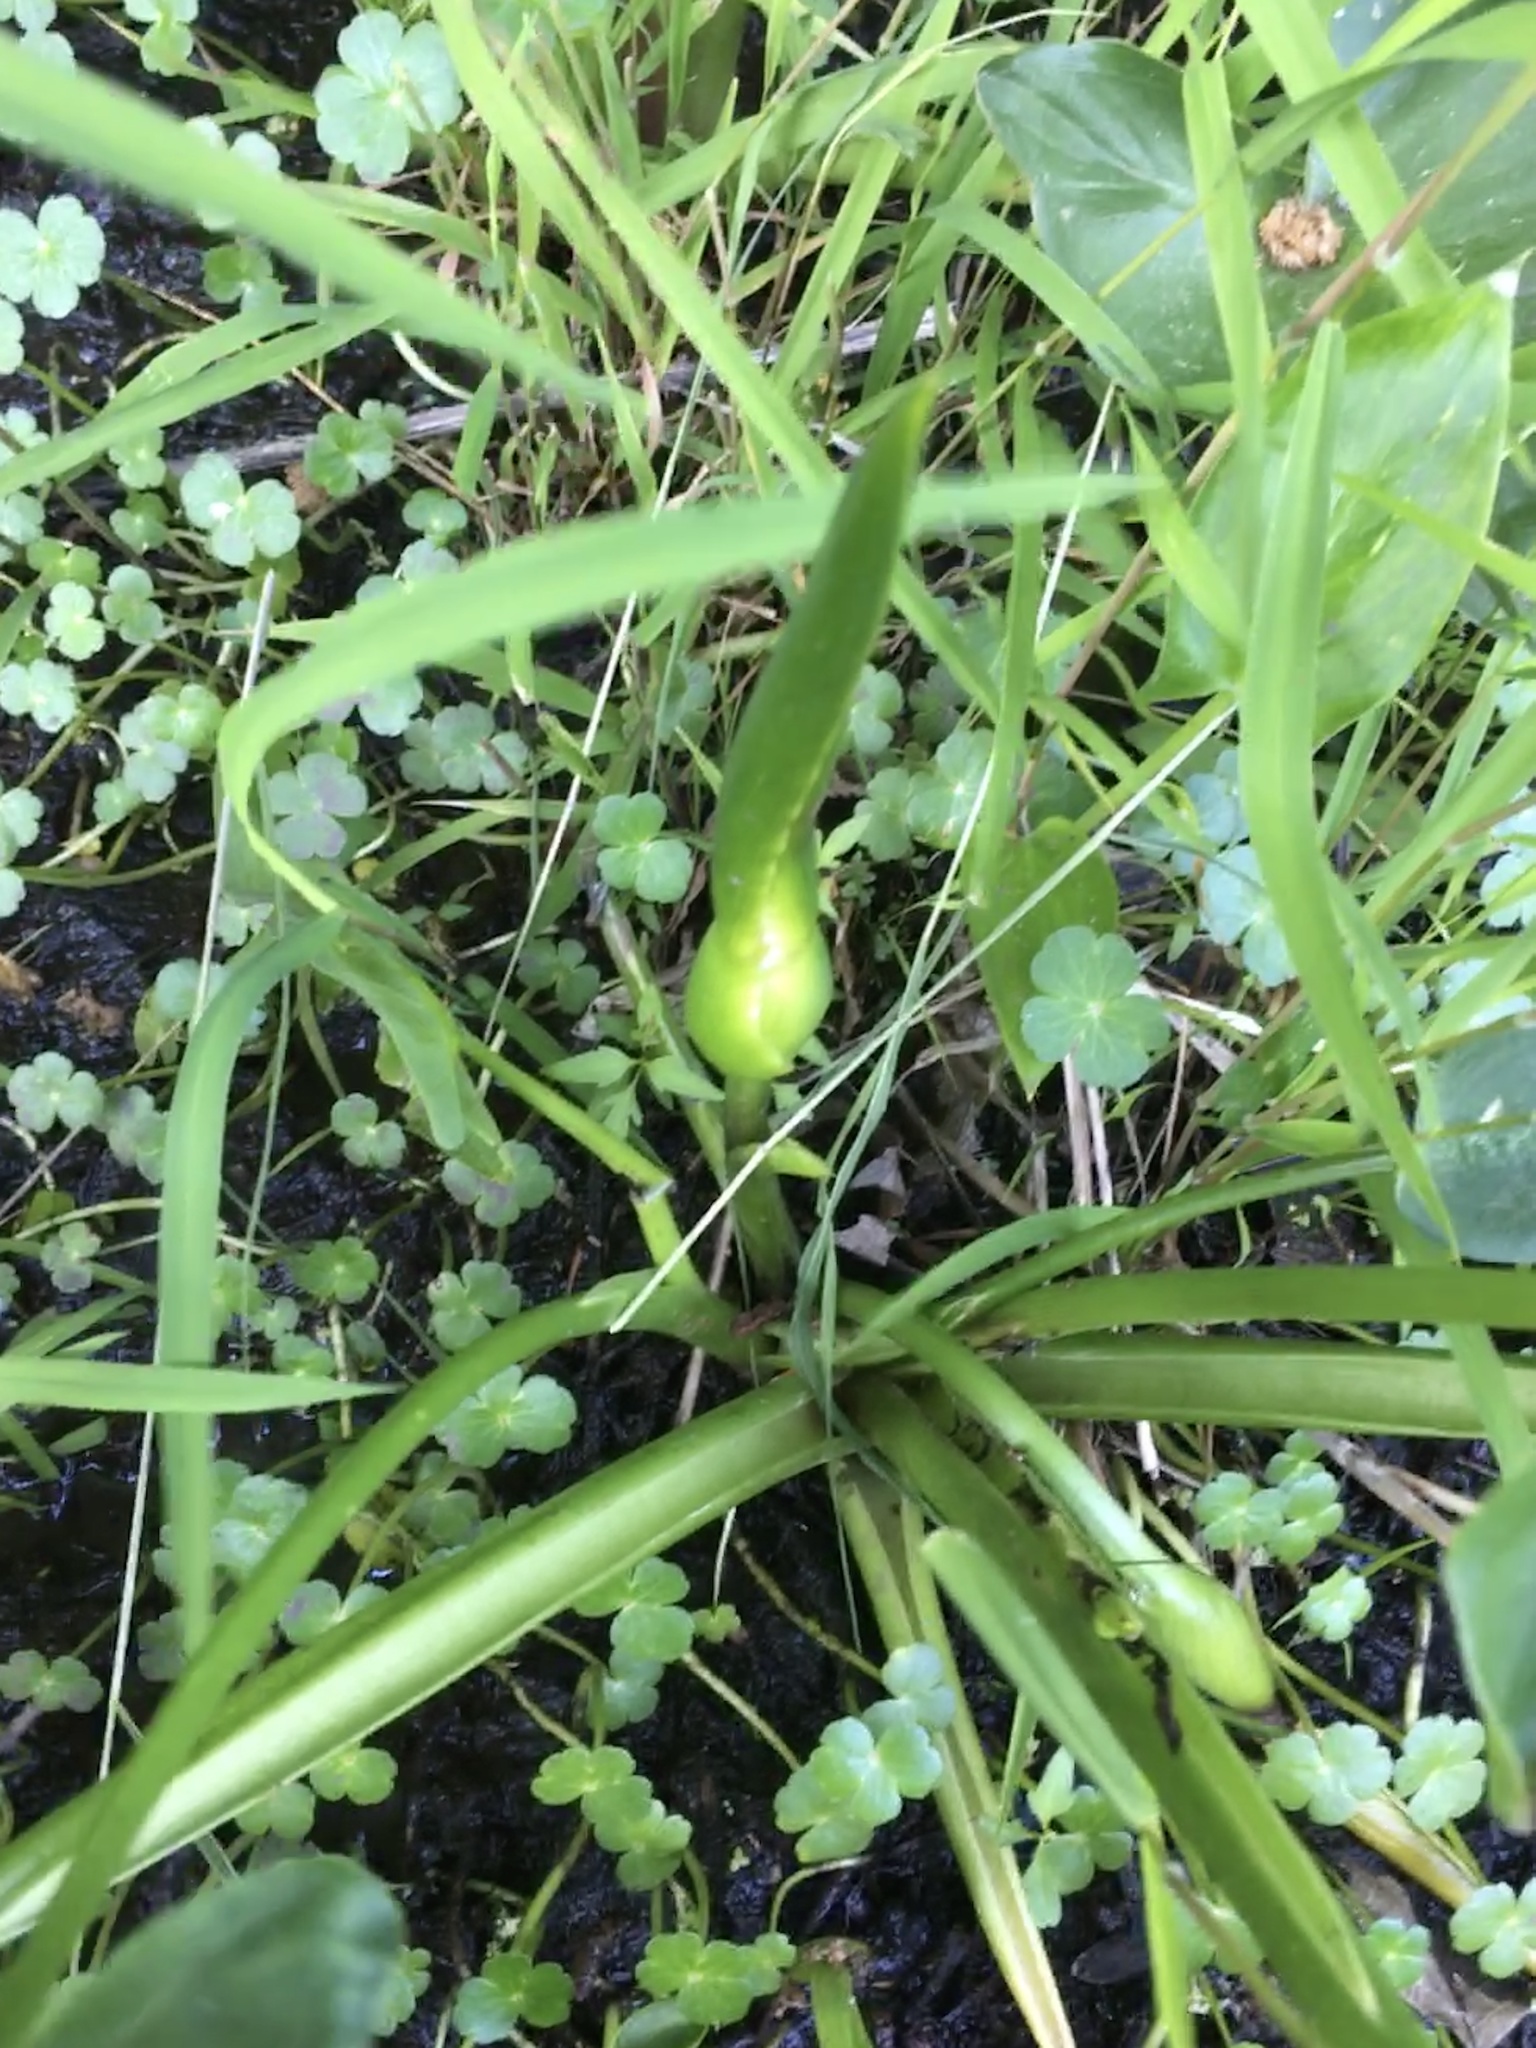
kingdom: Plantae
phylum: Tracheophyta
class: Liliopsida
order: Alismatales
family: Araceae
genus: Peltandra
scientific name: Peltandra virginica
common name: Arrow arum
